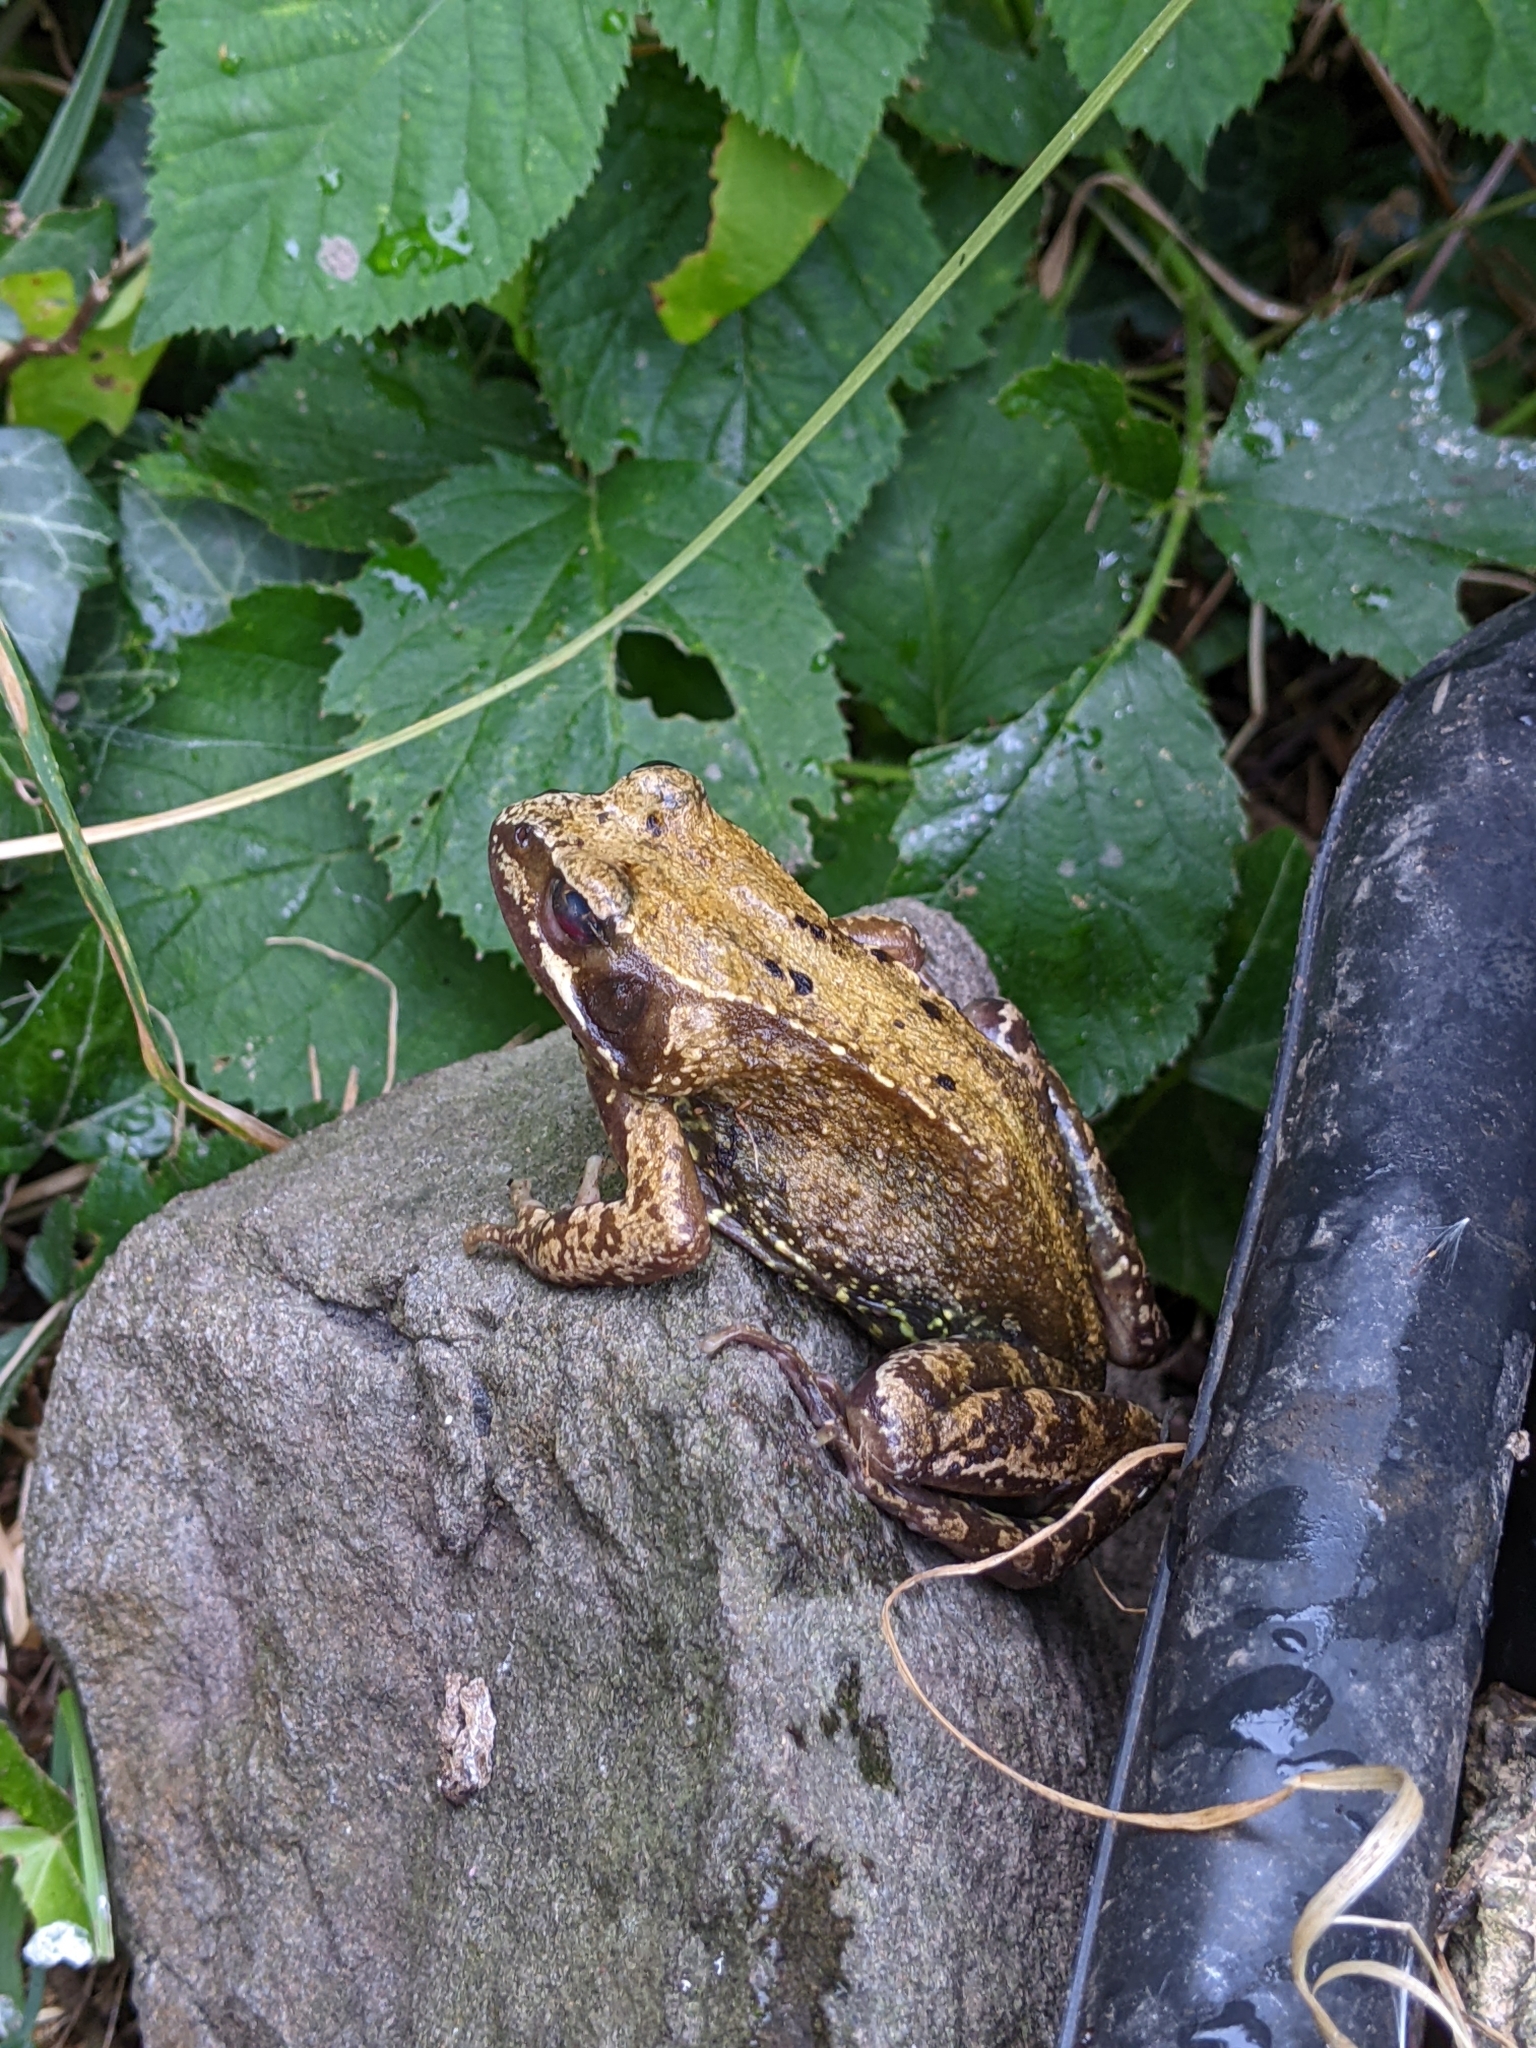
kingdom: Animalia
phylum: Chordata
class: Amphibia
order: Anura
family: Ranidae
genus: Rana
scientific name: Rana temporaria
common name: Common frog
